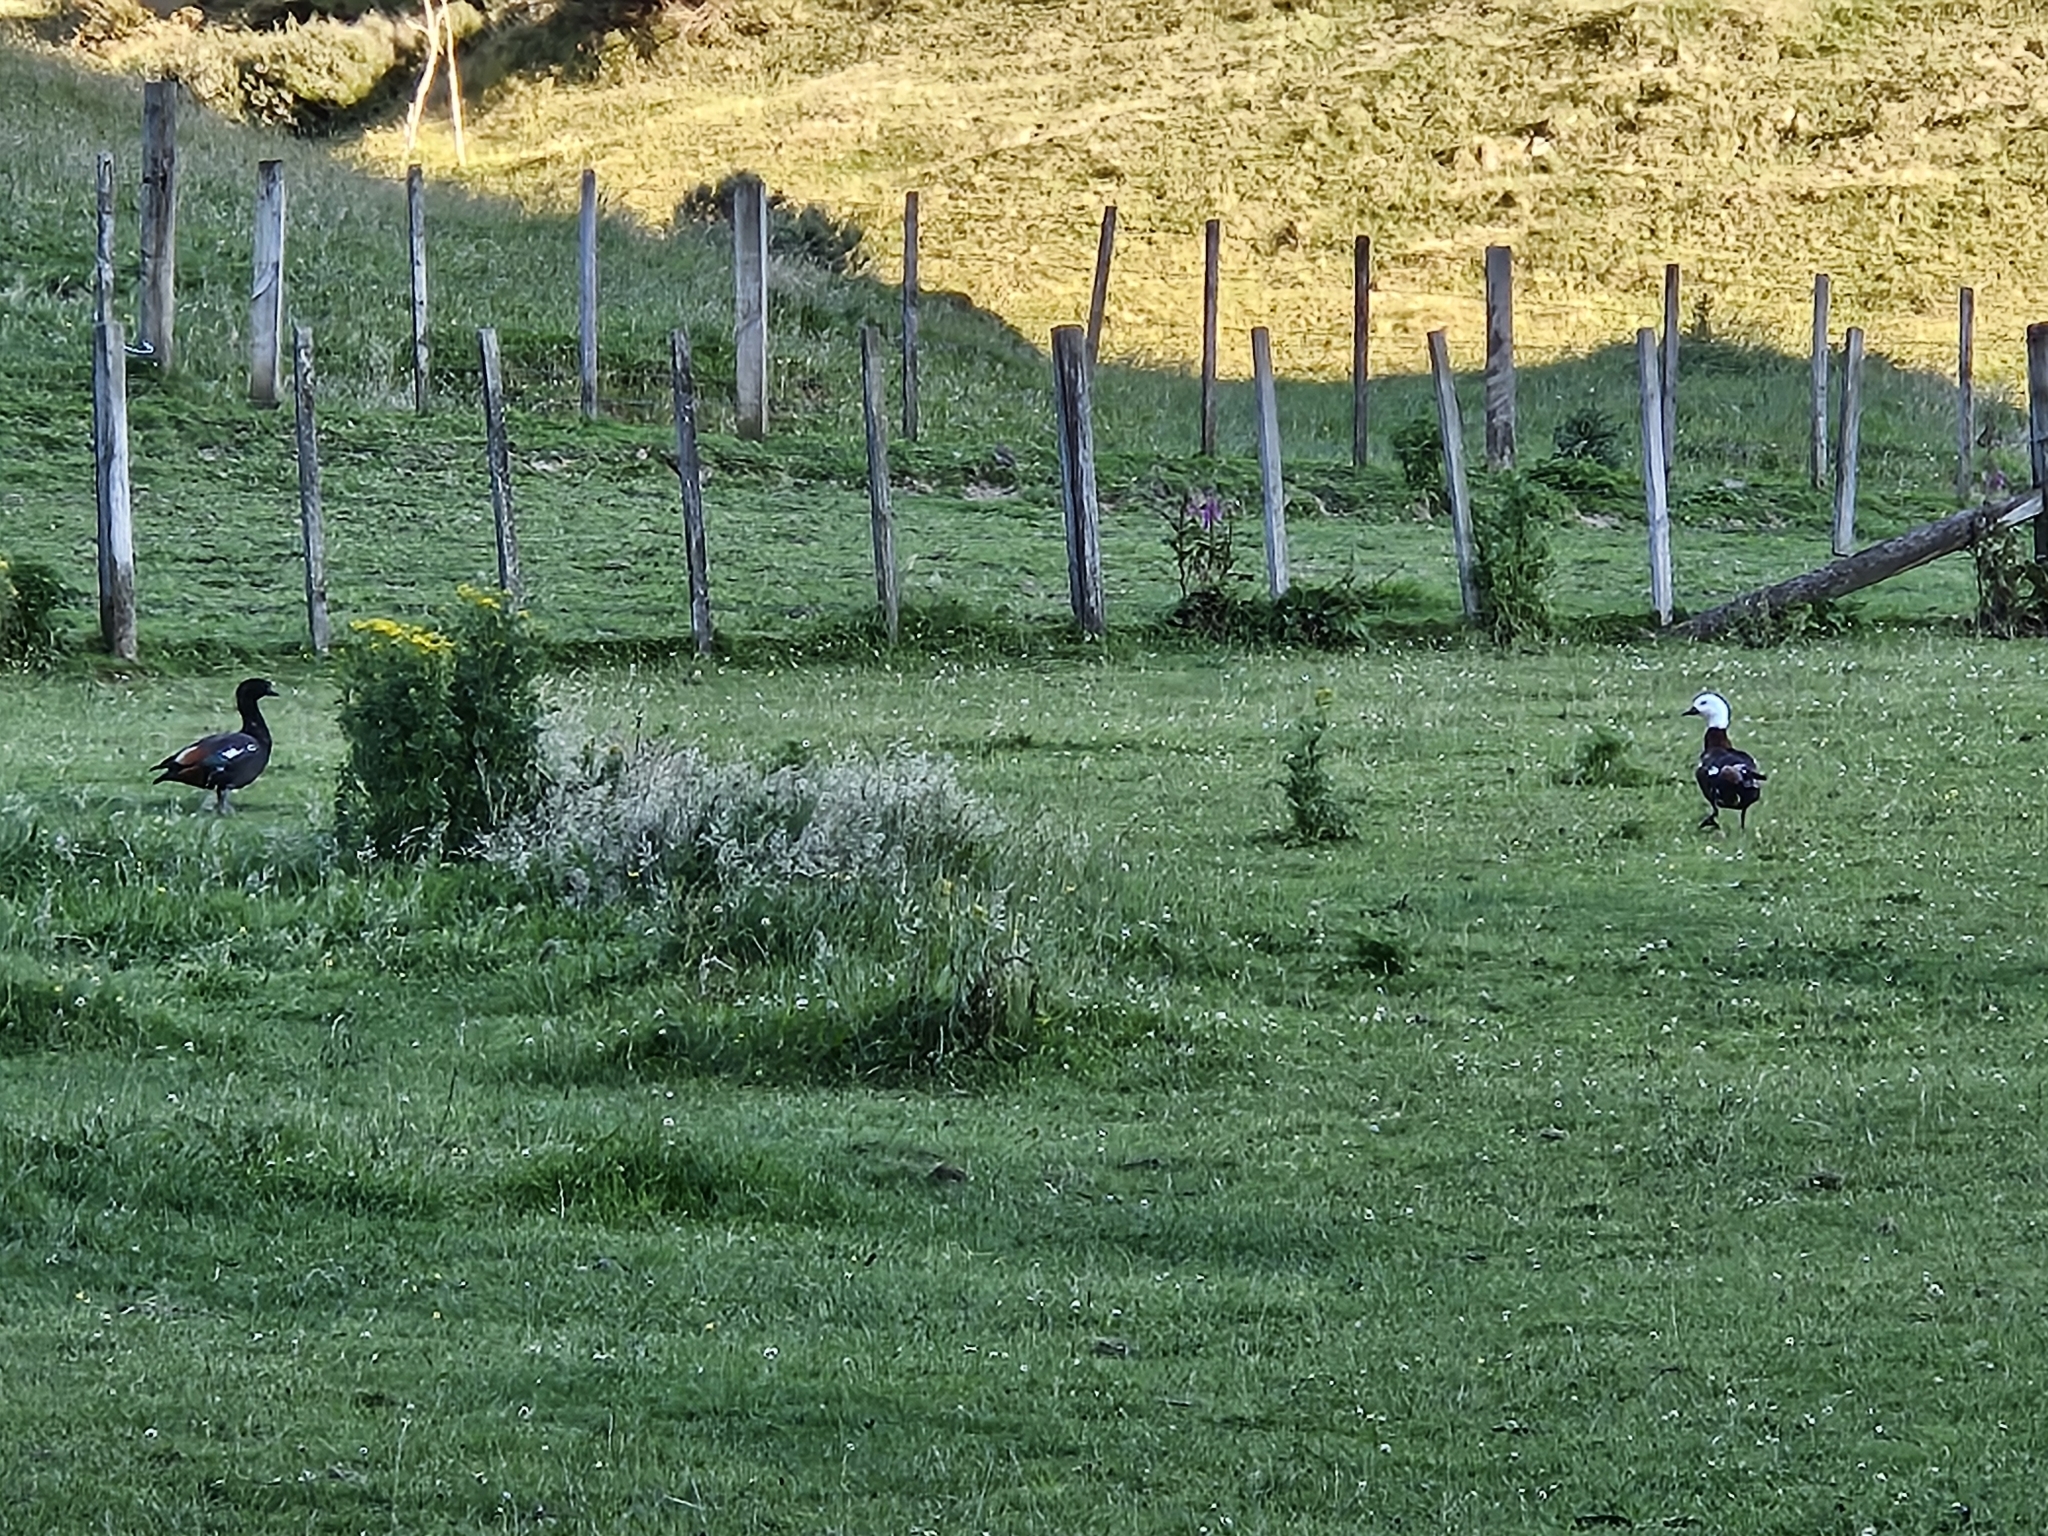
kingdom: Animalia
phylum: Chordata
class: Aves
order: Anseriformes
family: Anatidae
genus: Tadorna
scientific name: Tadorna variegata
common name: Paradise shelduck
